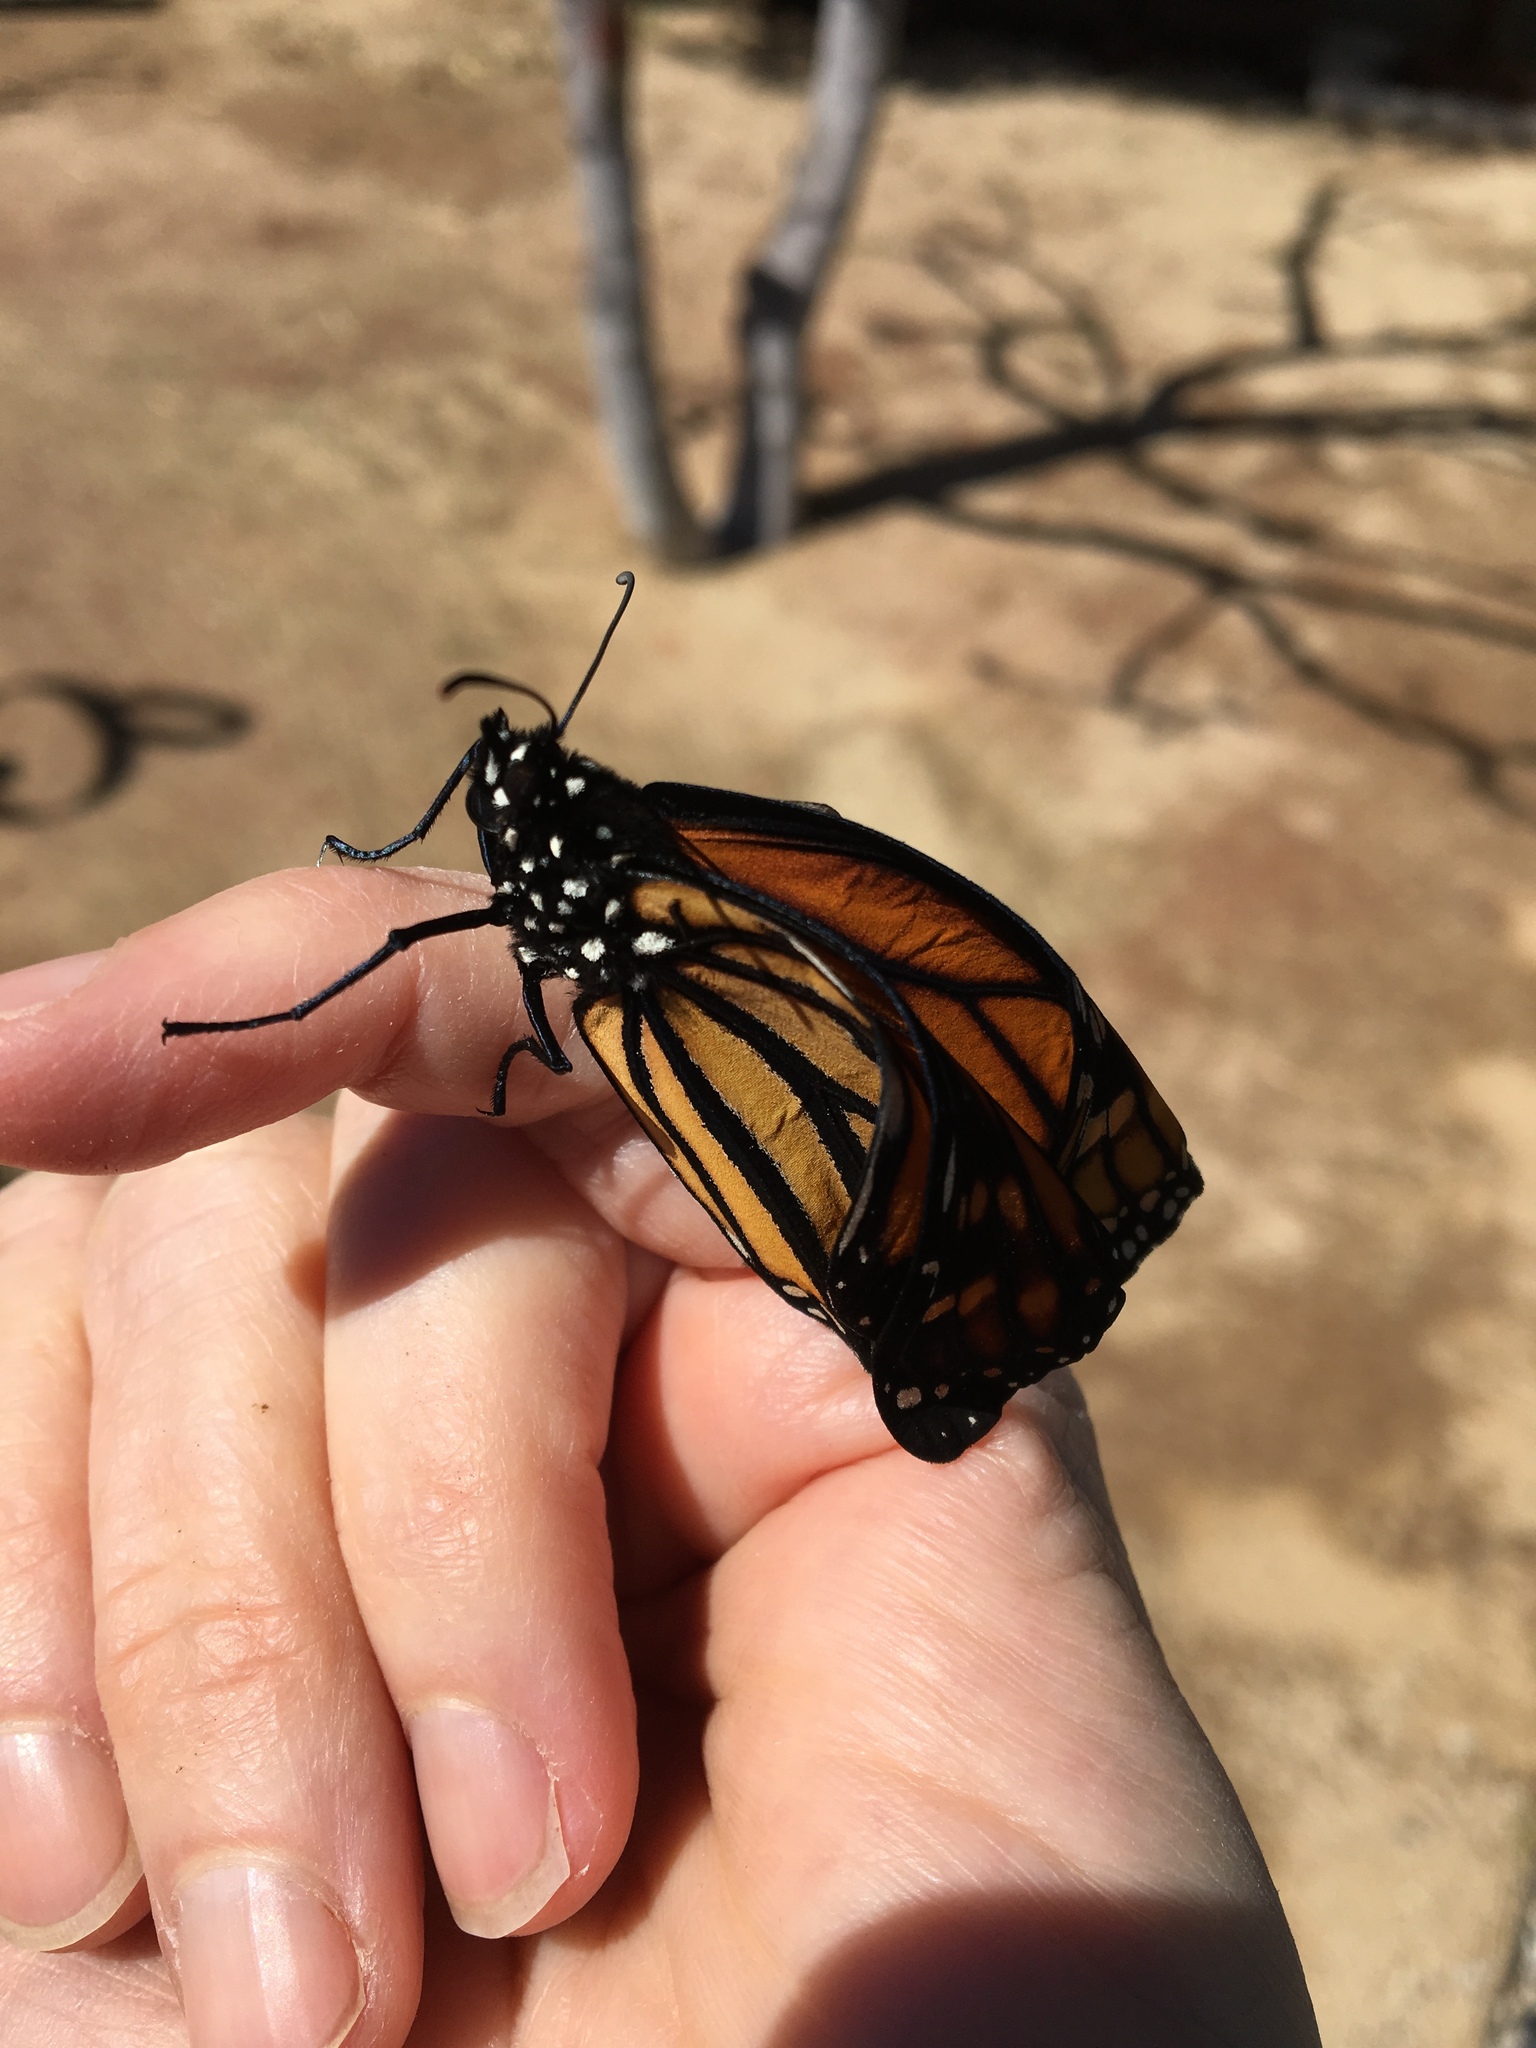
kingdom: Animalia
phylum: Arthropoda
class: Insecta
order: Lepidoptera
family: Nymphalidae
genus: Danaus
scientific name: Danaus plexippus
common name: Monarch
